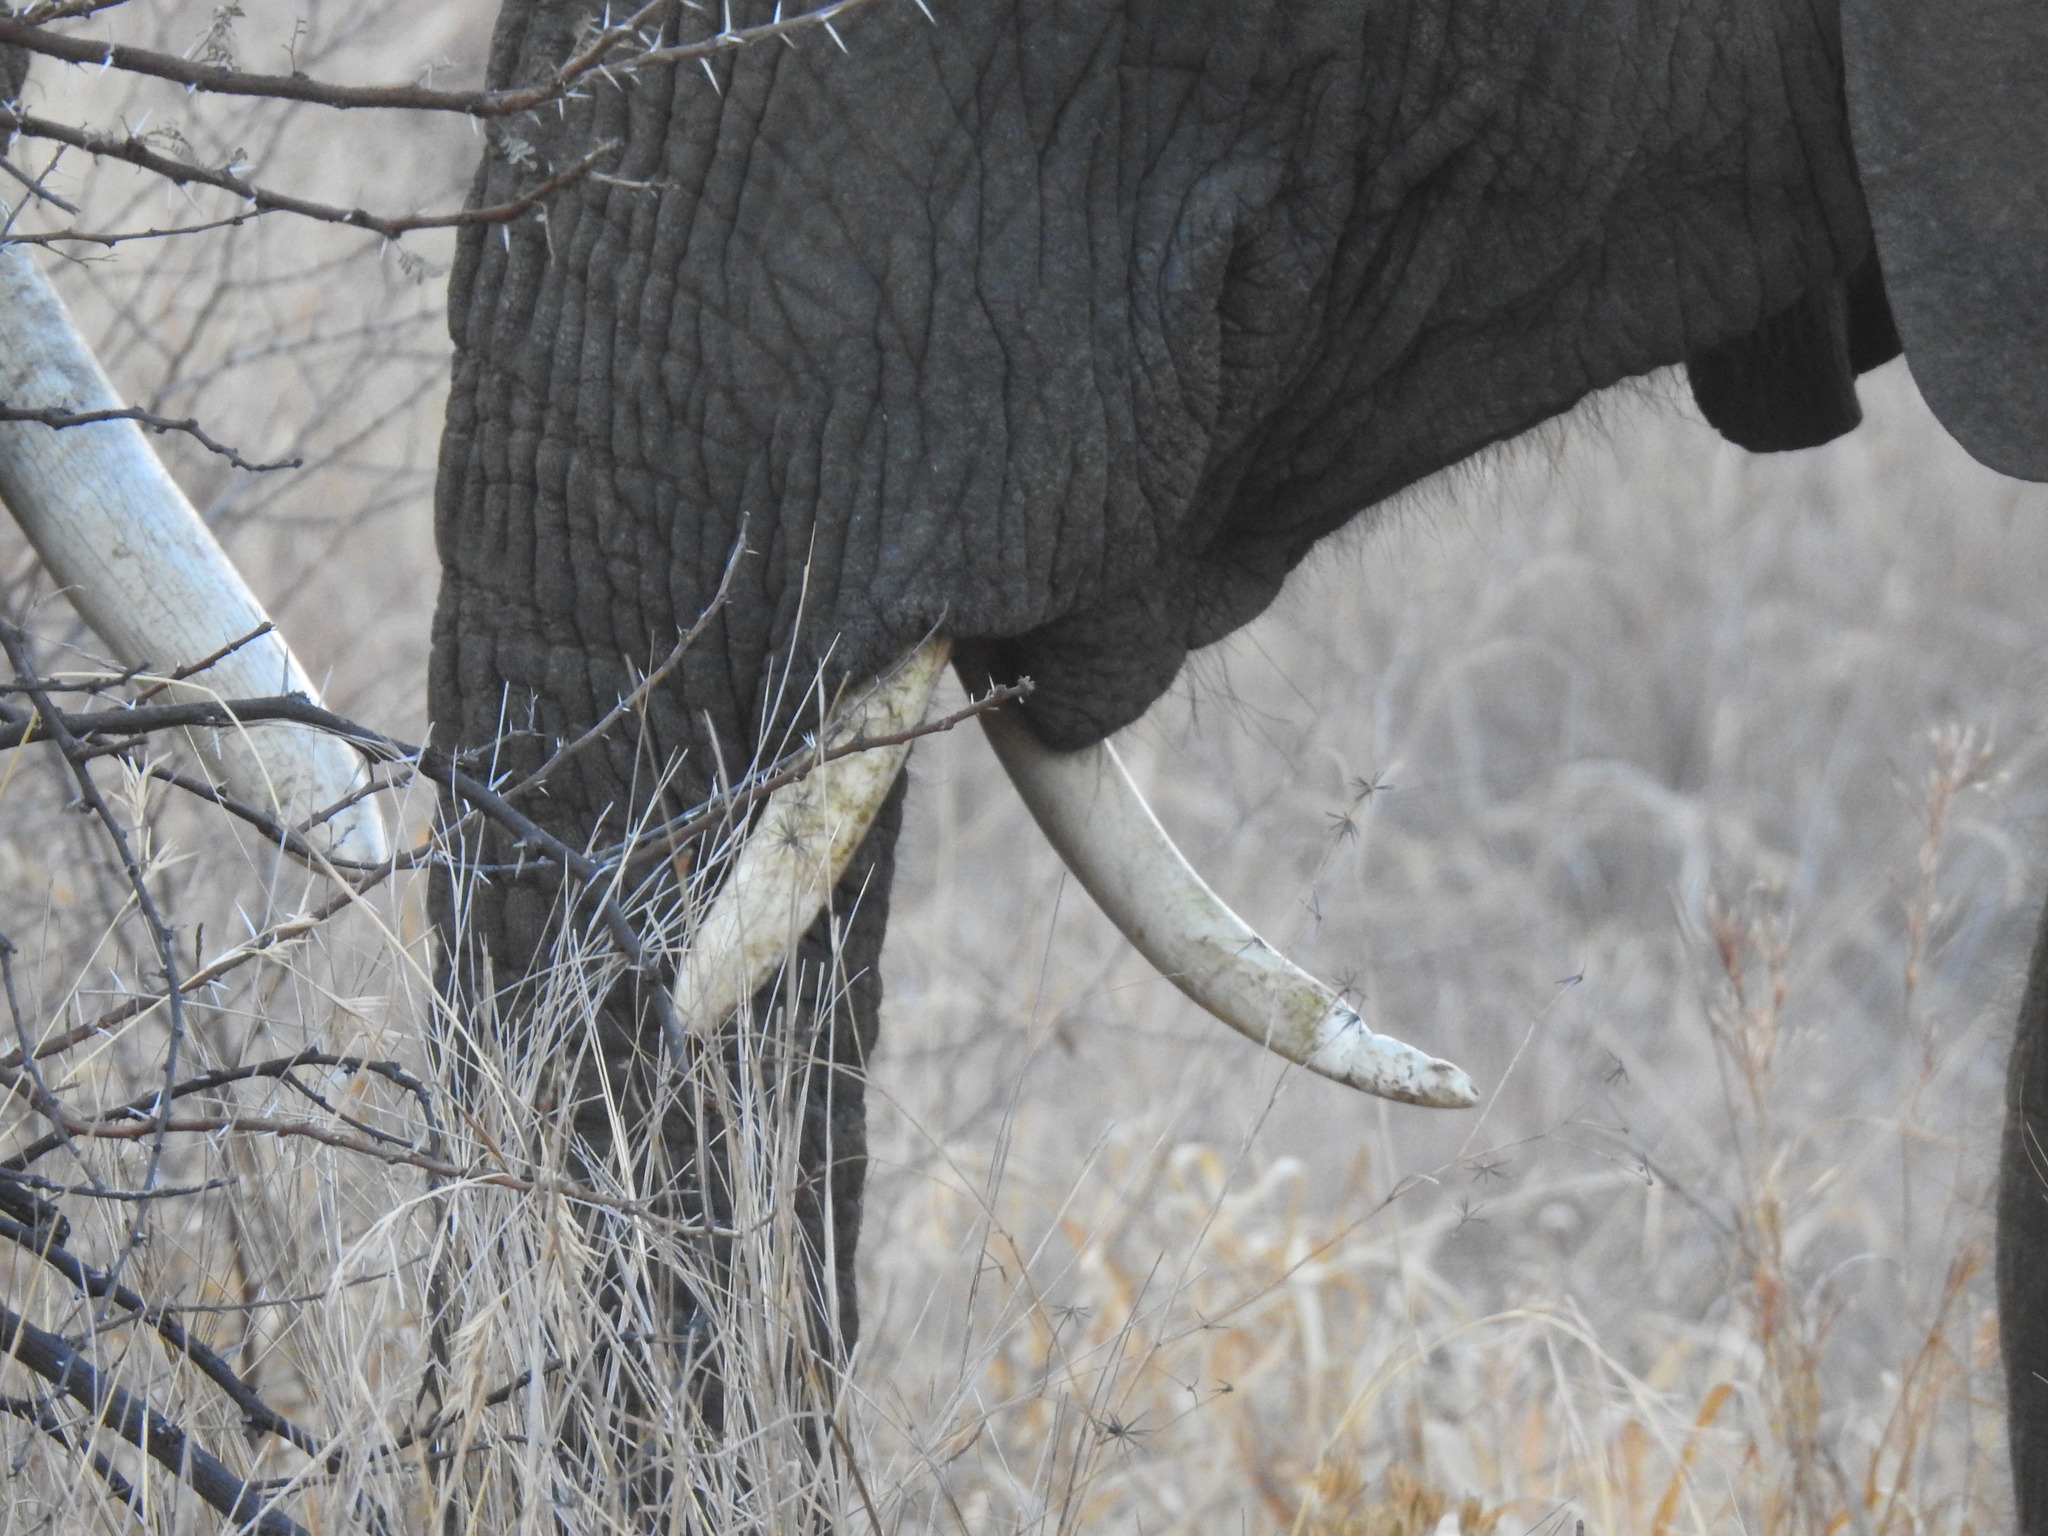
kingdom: Animalia
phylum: Chordata
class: Mammalia
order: Proboscidea
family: Elephantidae
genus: Loxodonta
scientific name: Loxodonta africana
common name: African elephant
